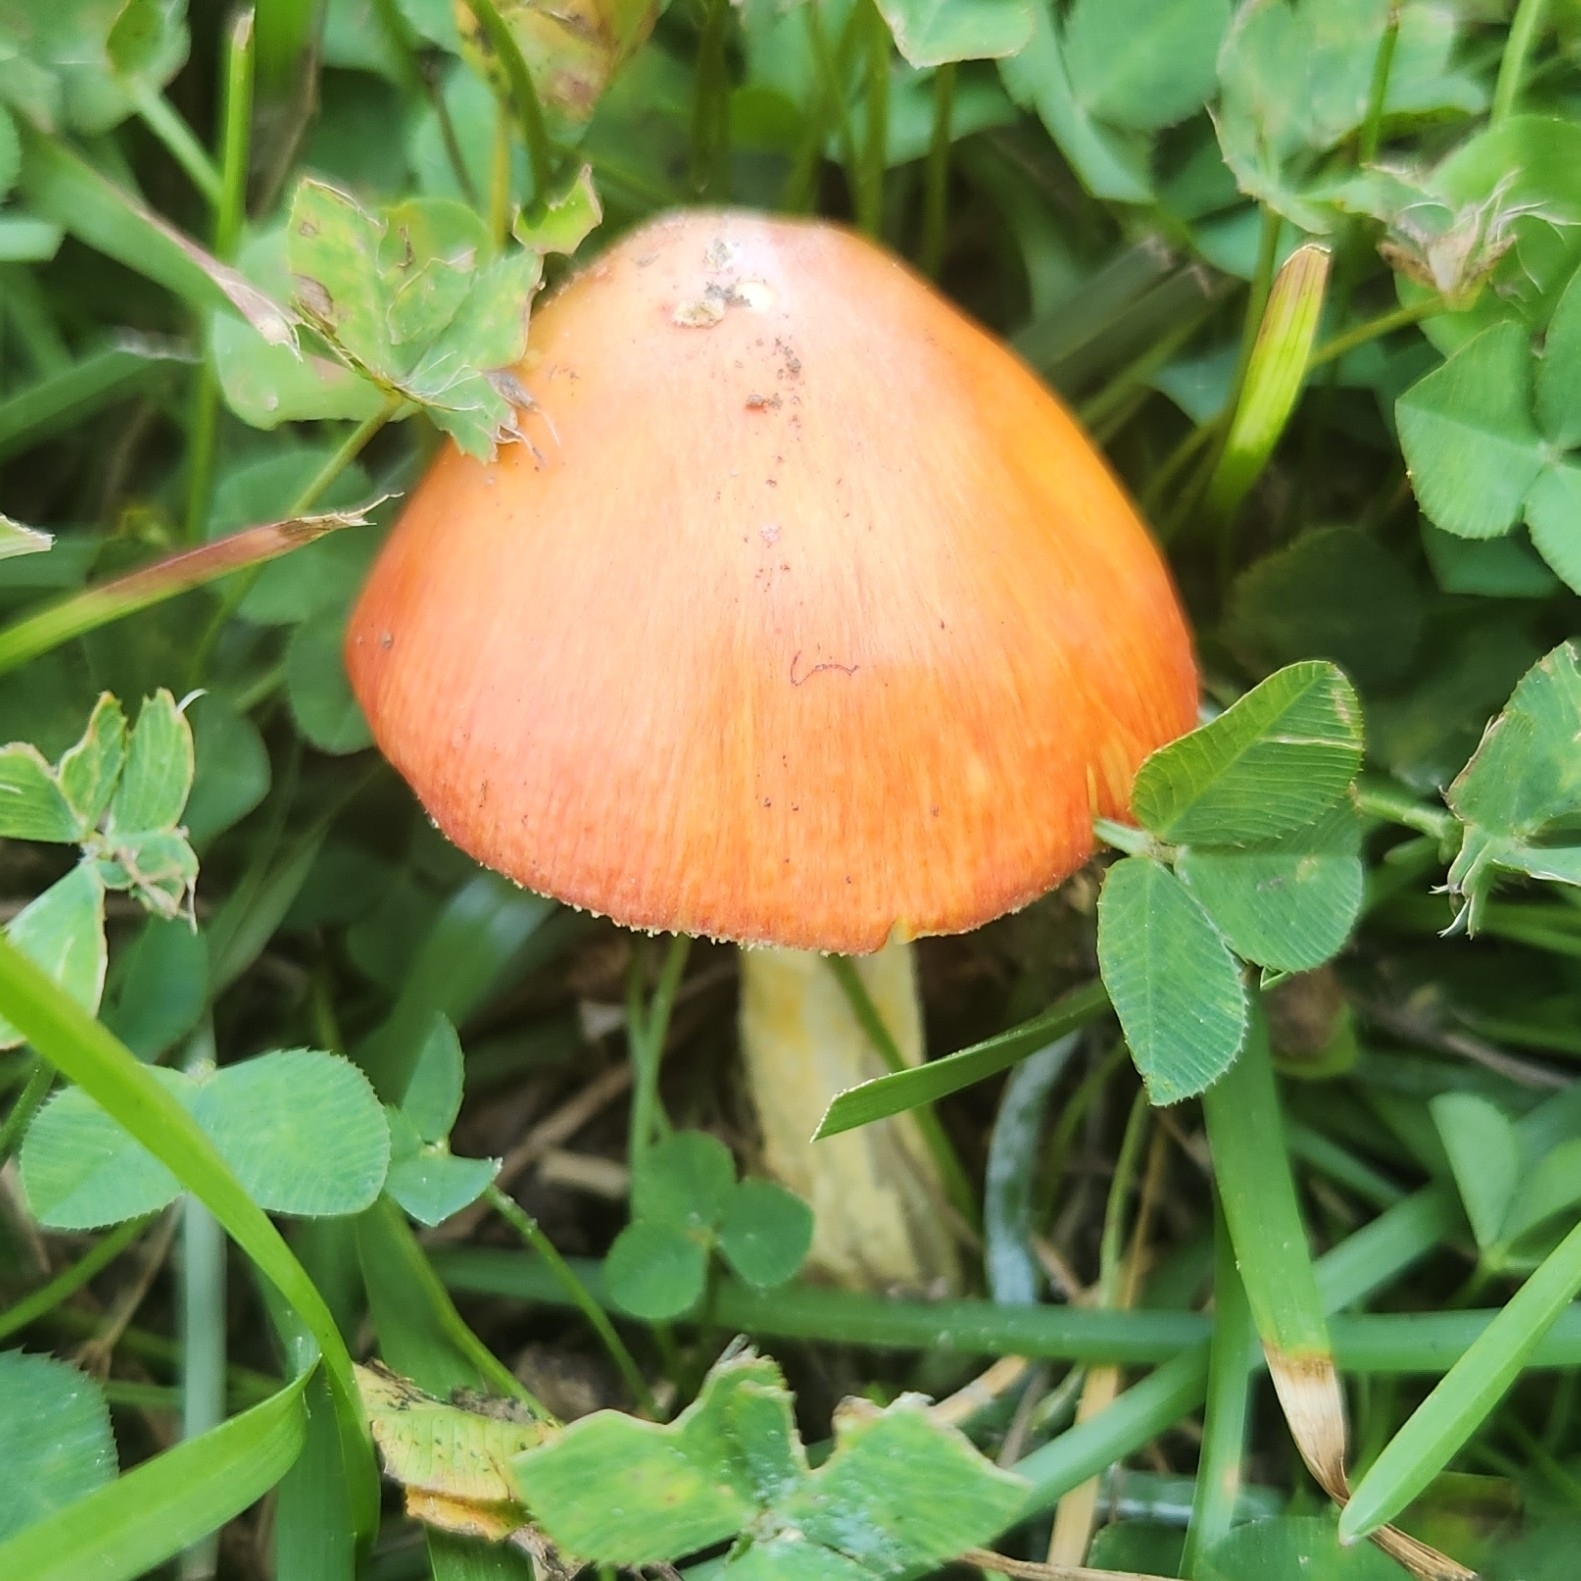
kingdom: Fungi
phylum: Basidiomycota
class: Agaricomycetes
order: Agaricales
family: Amanitaceae
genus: Amanita
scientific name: Amanita parcivolvata
